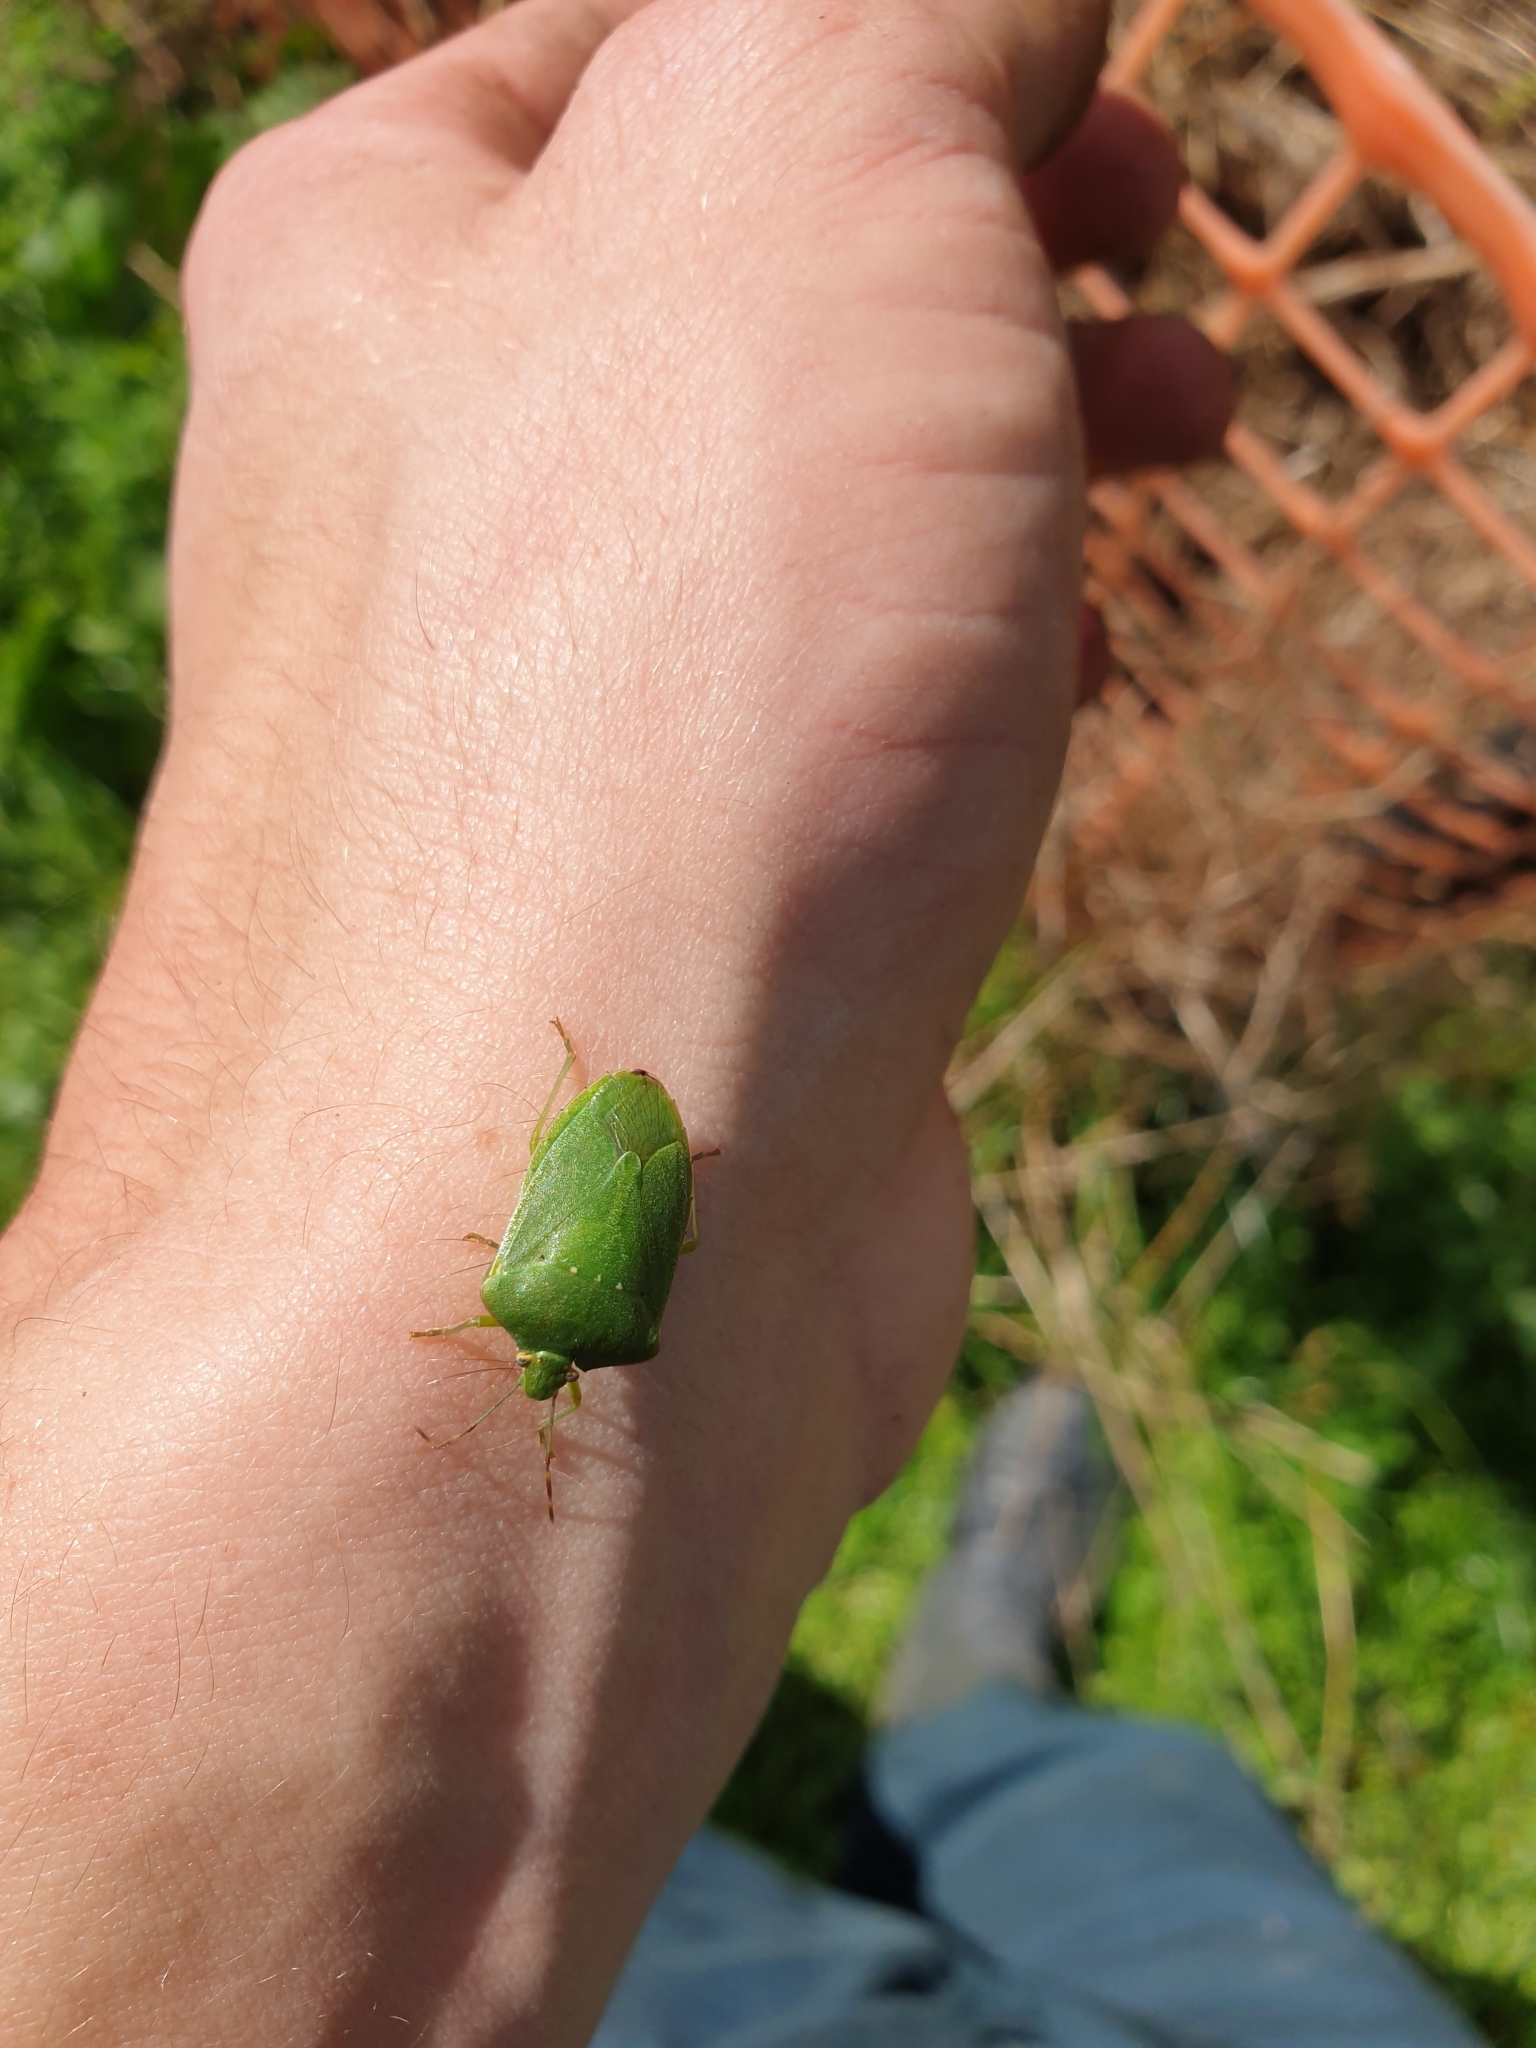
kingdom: Animalia
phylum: Arthropoda
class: Insecta
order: Hemiptera
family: Pentatomidae
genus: Nezara
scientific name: Nezara viridula
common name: Southern green stink bug
